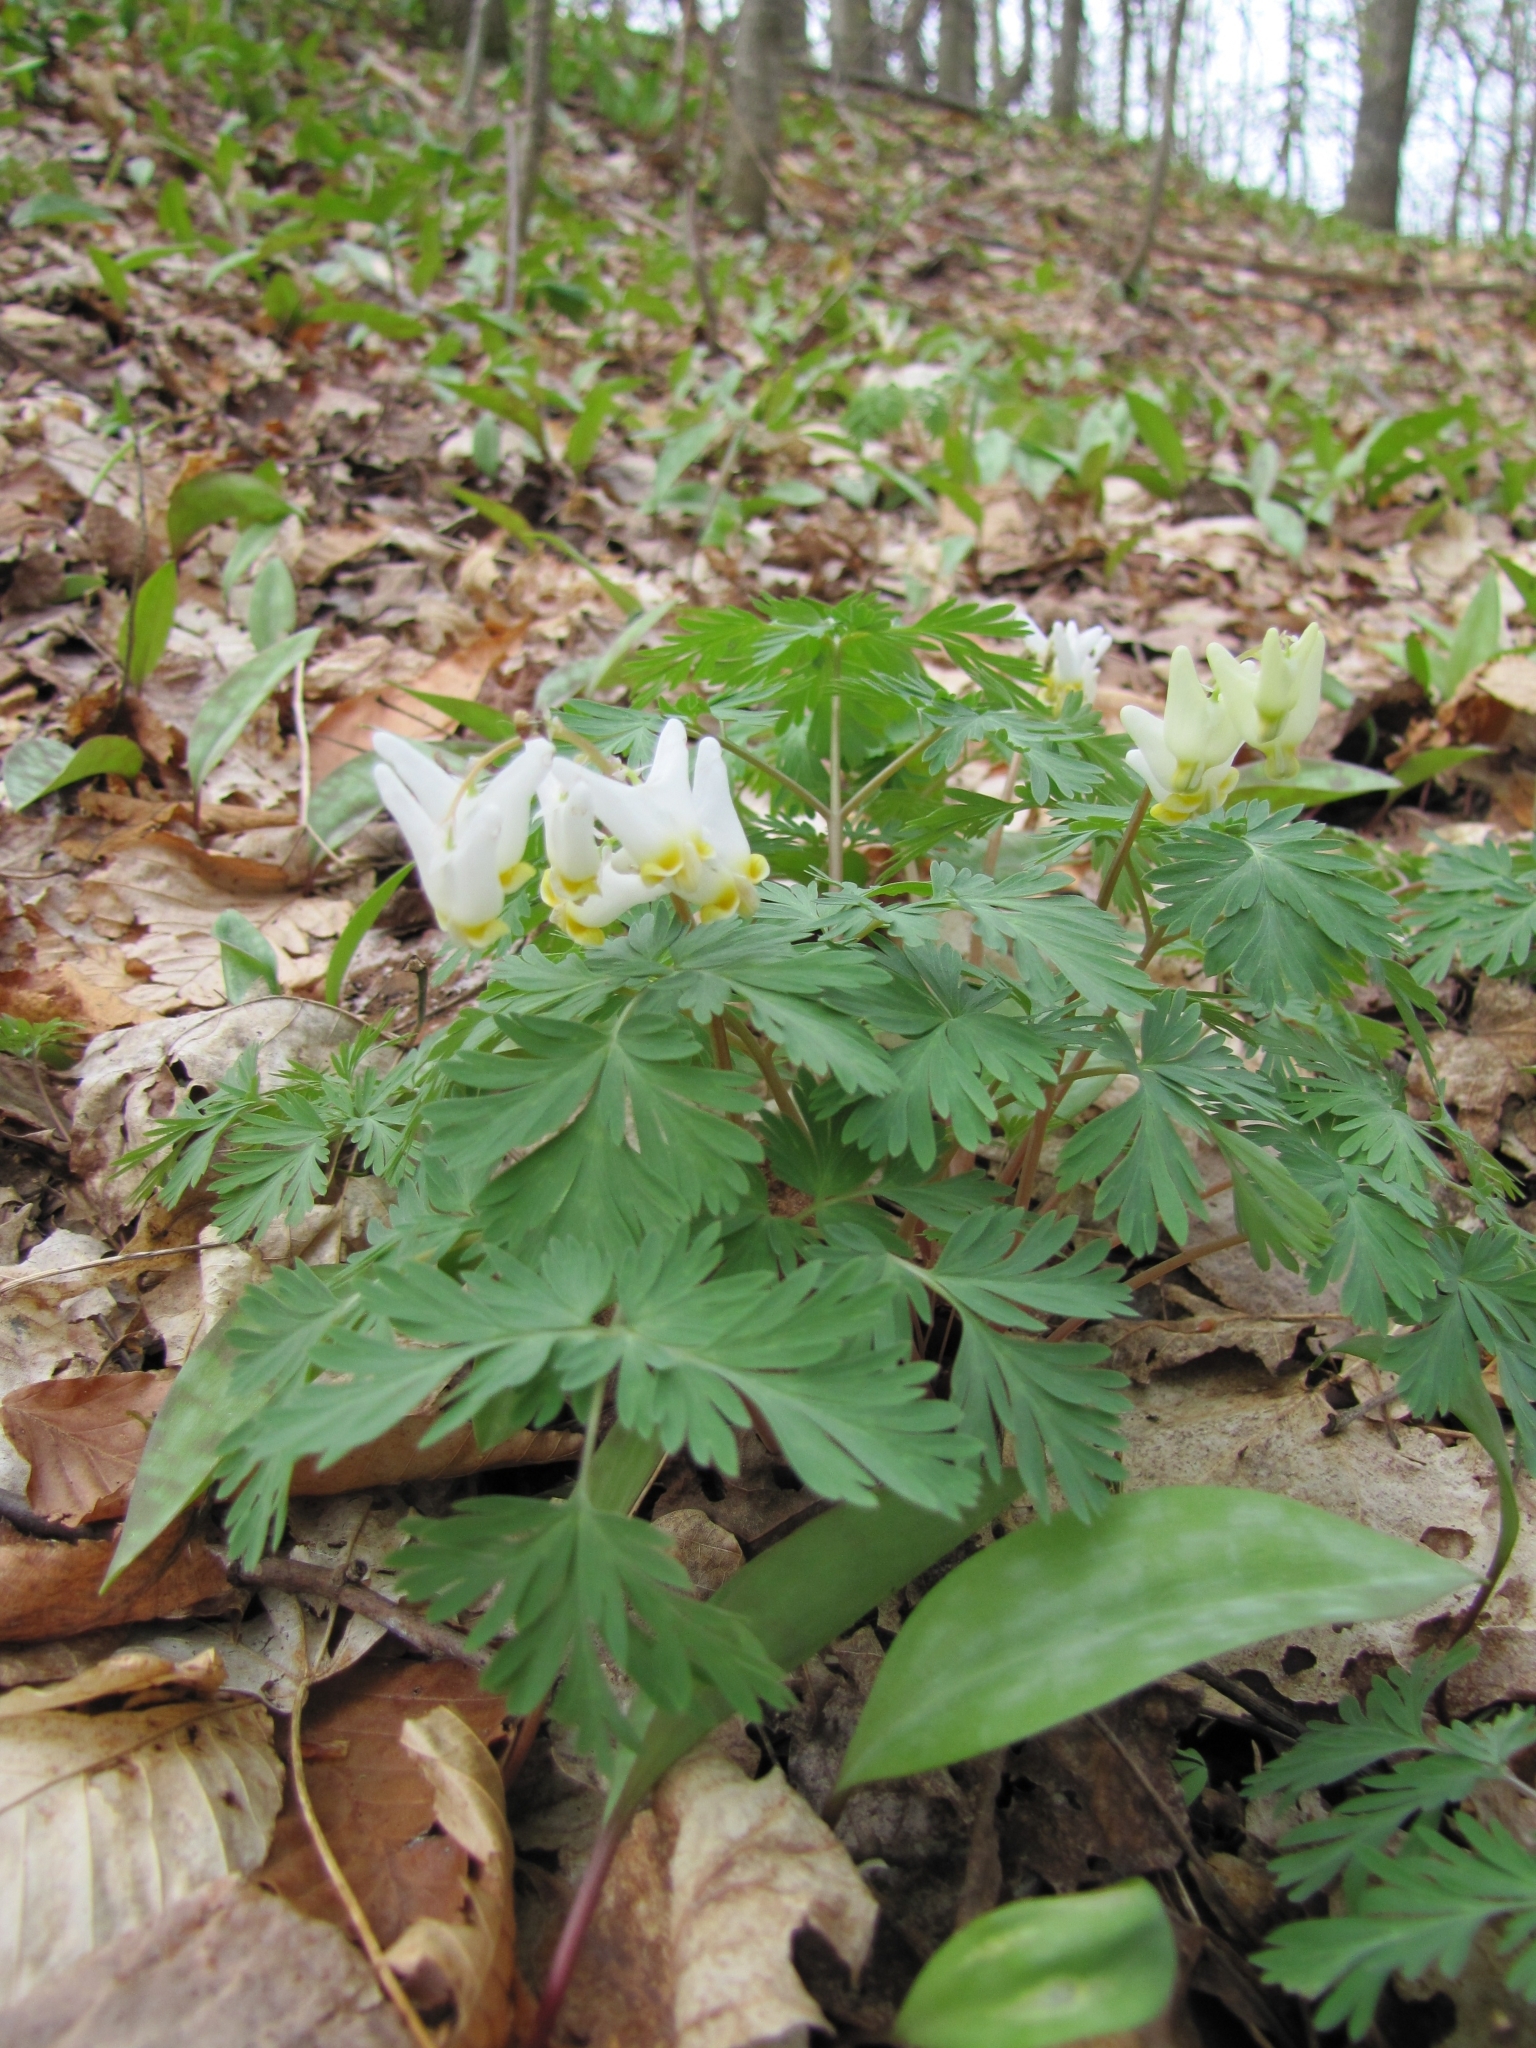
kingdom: Plantae
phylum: Tracheophyta
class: Magnoliopsida
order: Ranunculales
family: Papaveraceae
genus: Dicentra
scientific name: Dicentra cucullaria
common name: Dutchman's breeches
